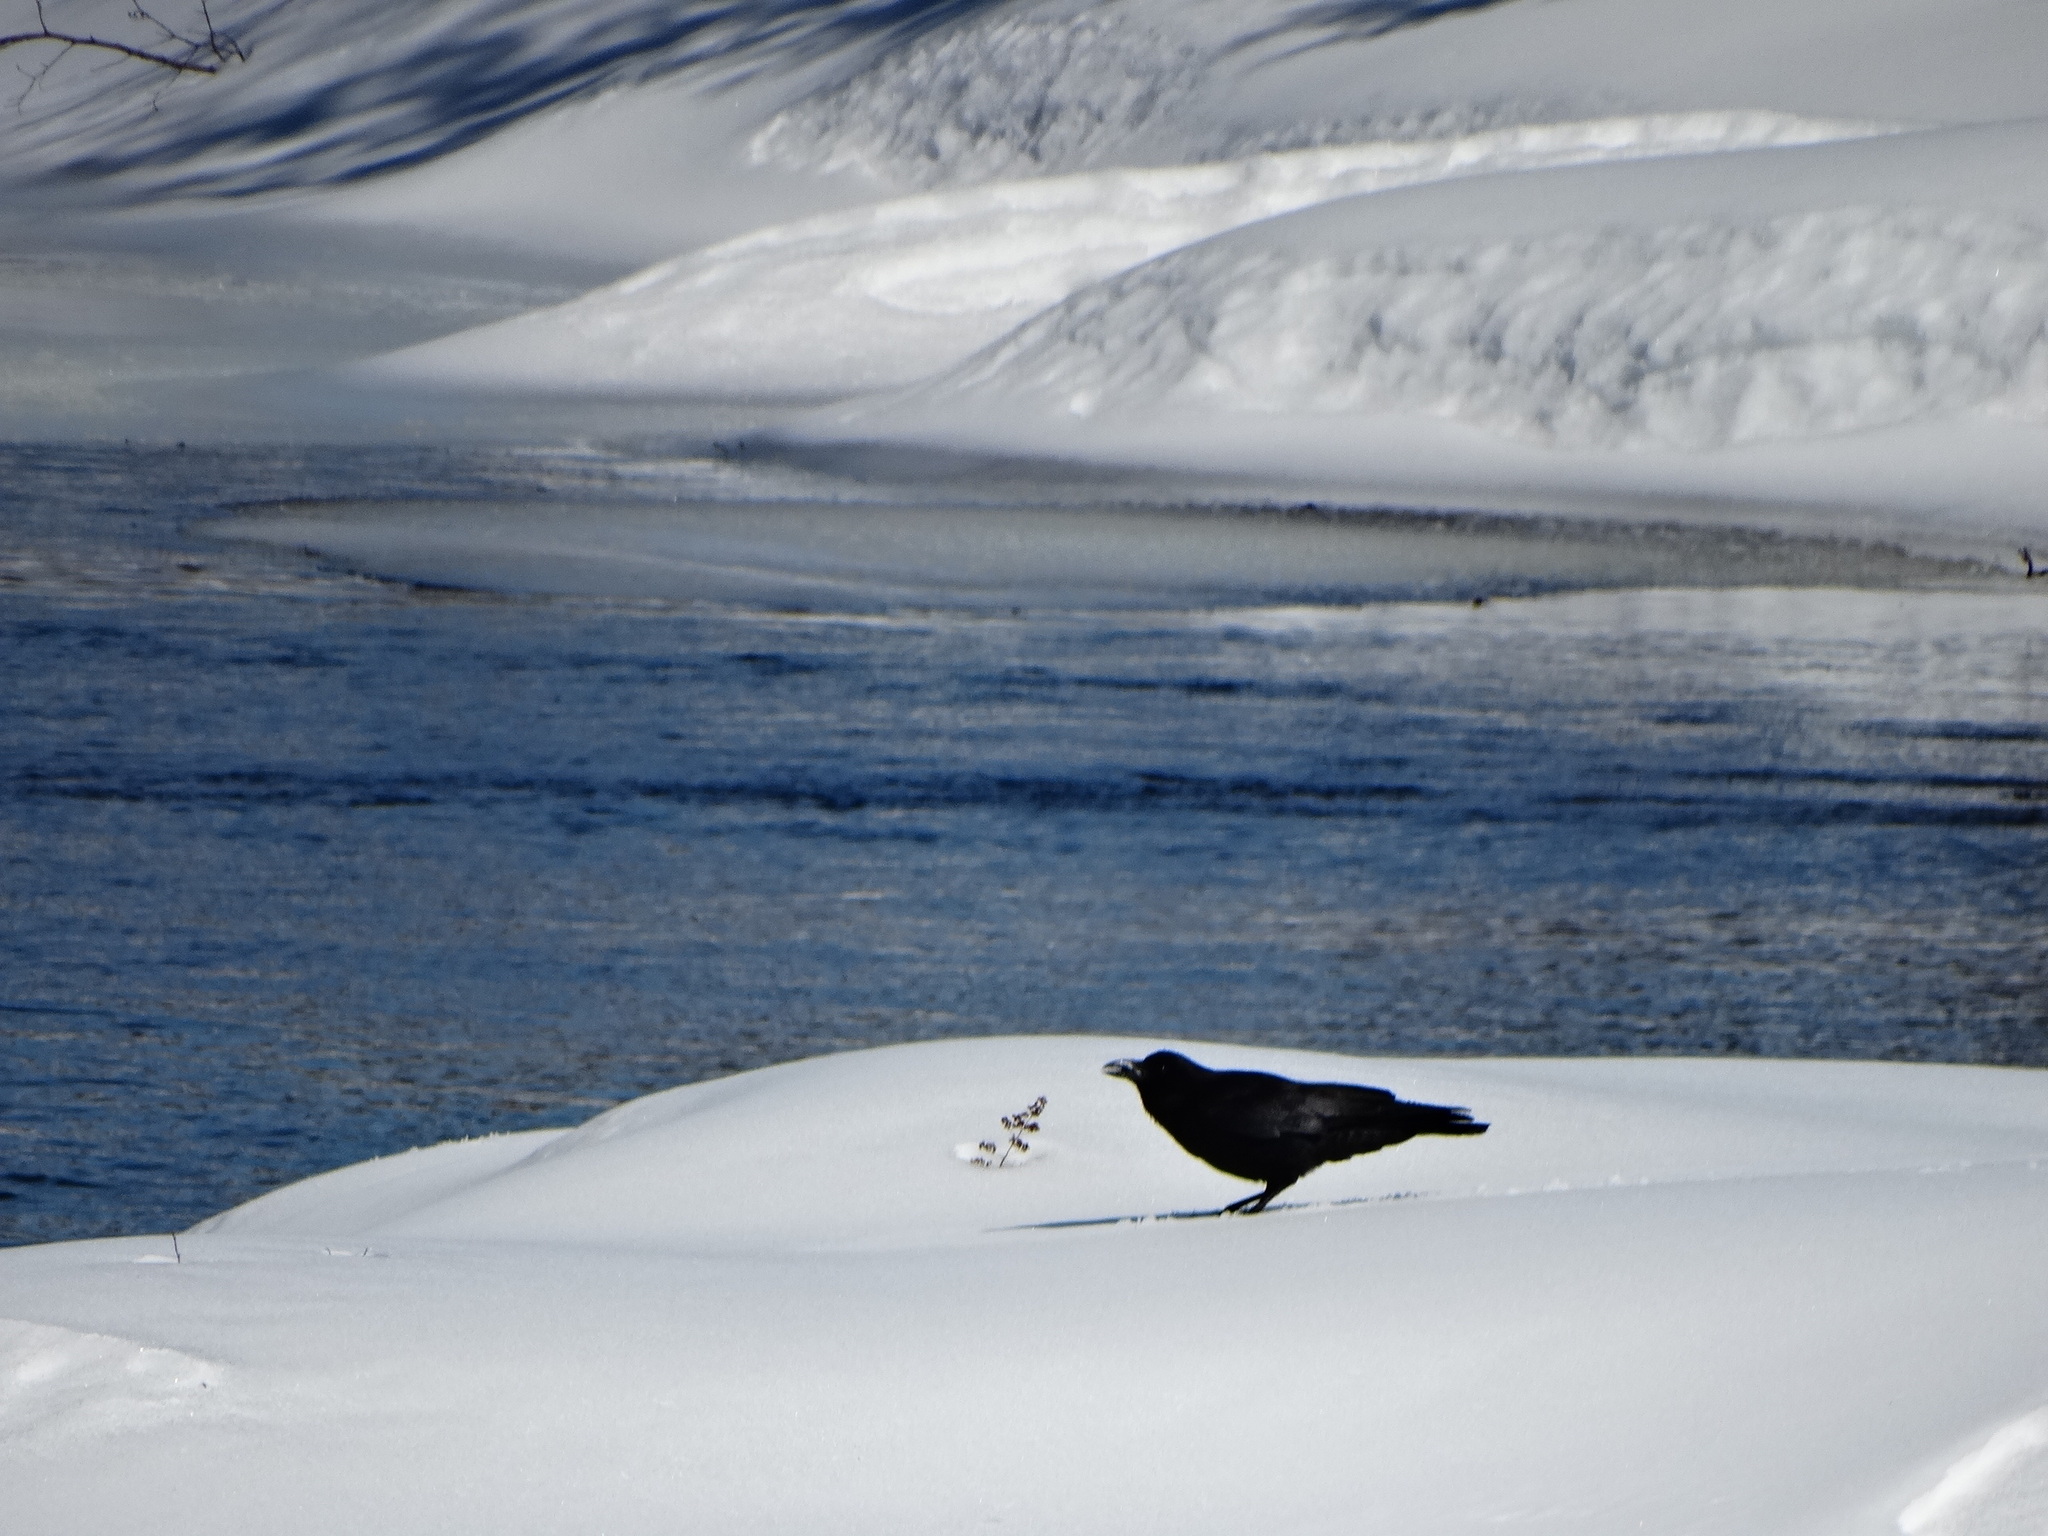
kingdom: Animalia
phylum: Chordata
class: Aves
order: Passeriformes
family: Corvidae
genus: Corvus
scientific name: Corvus brachyrhynchos
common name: American crow
